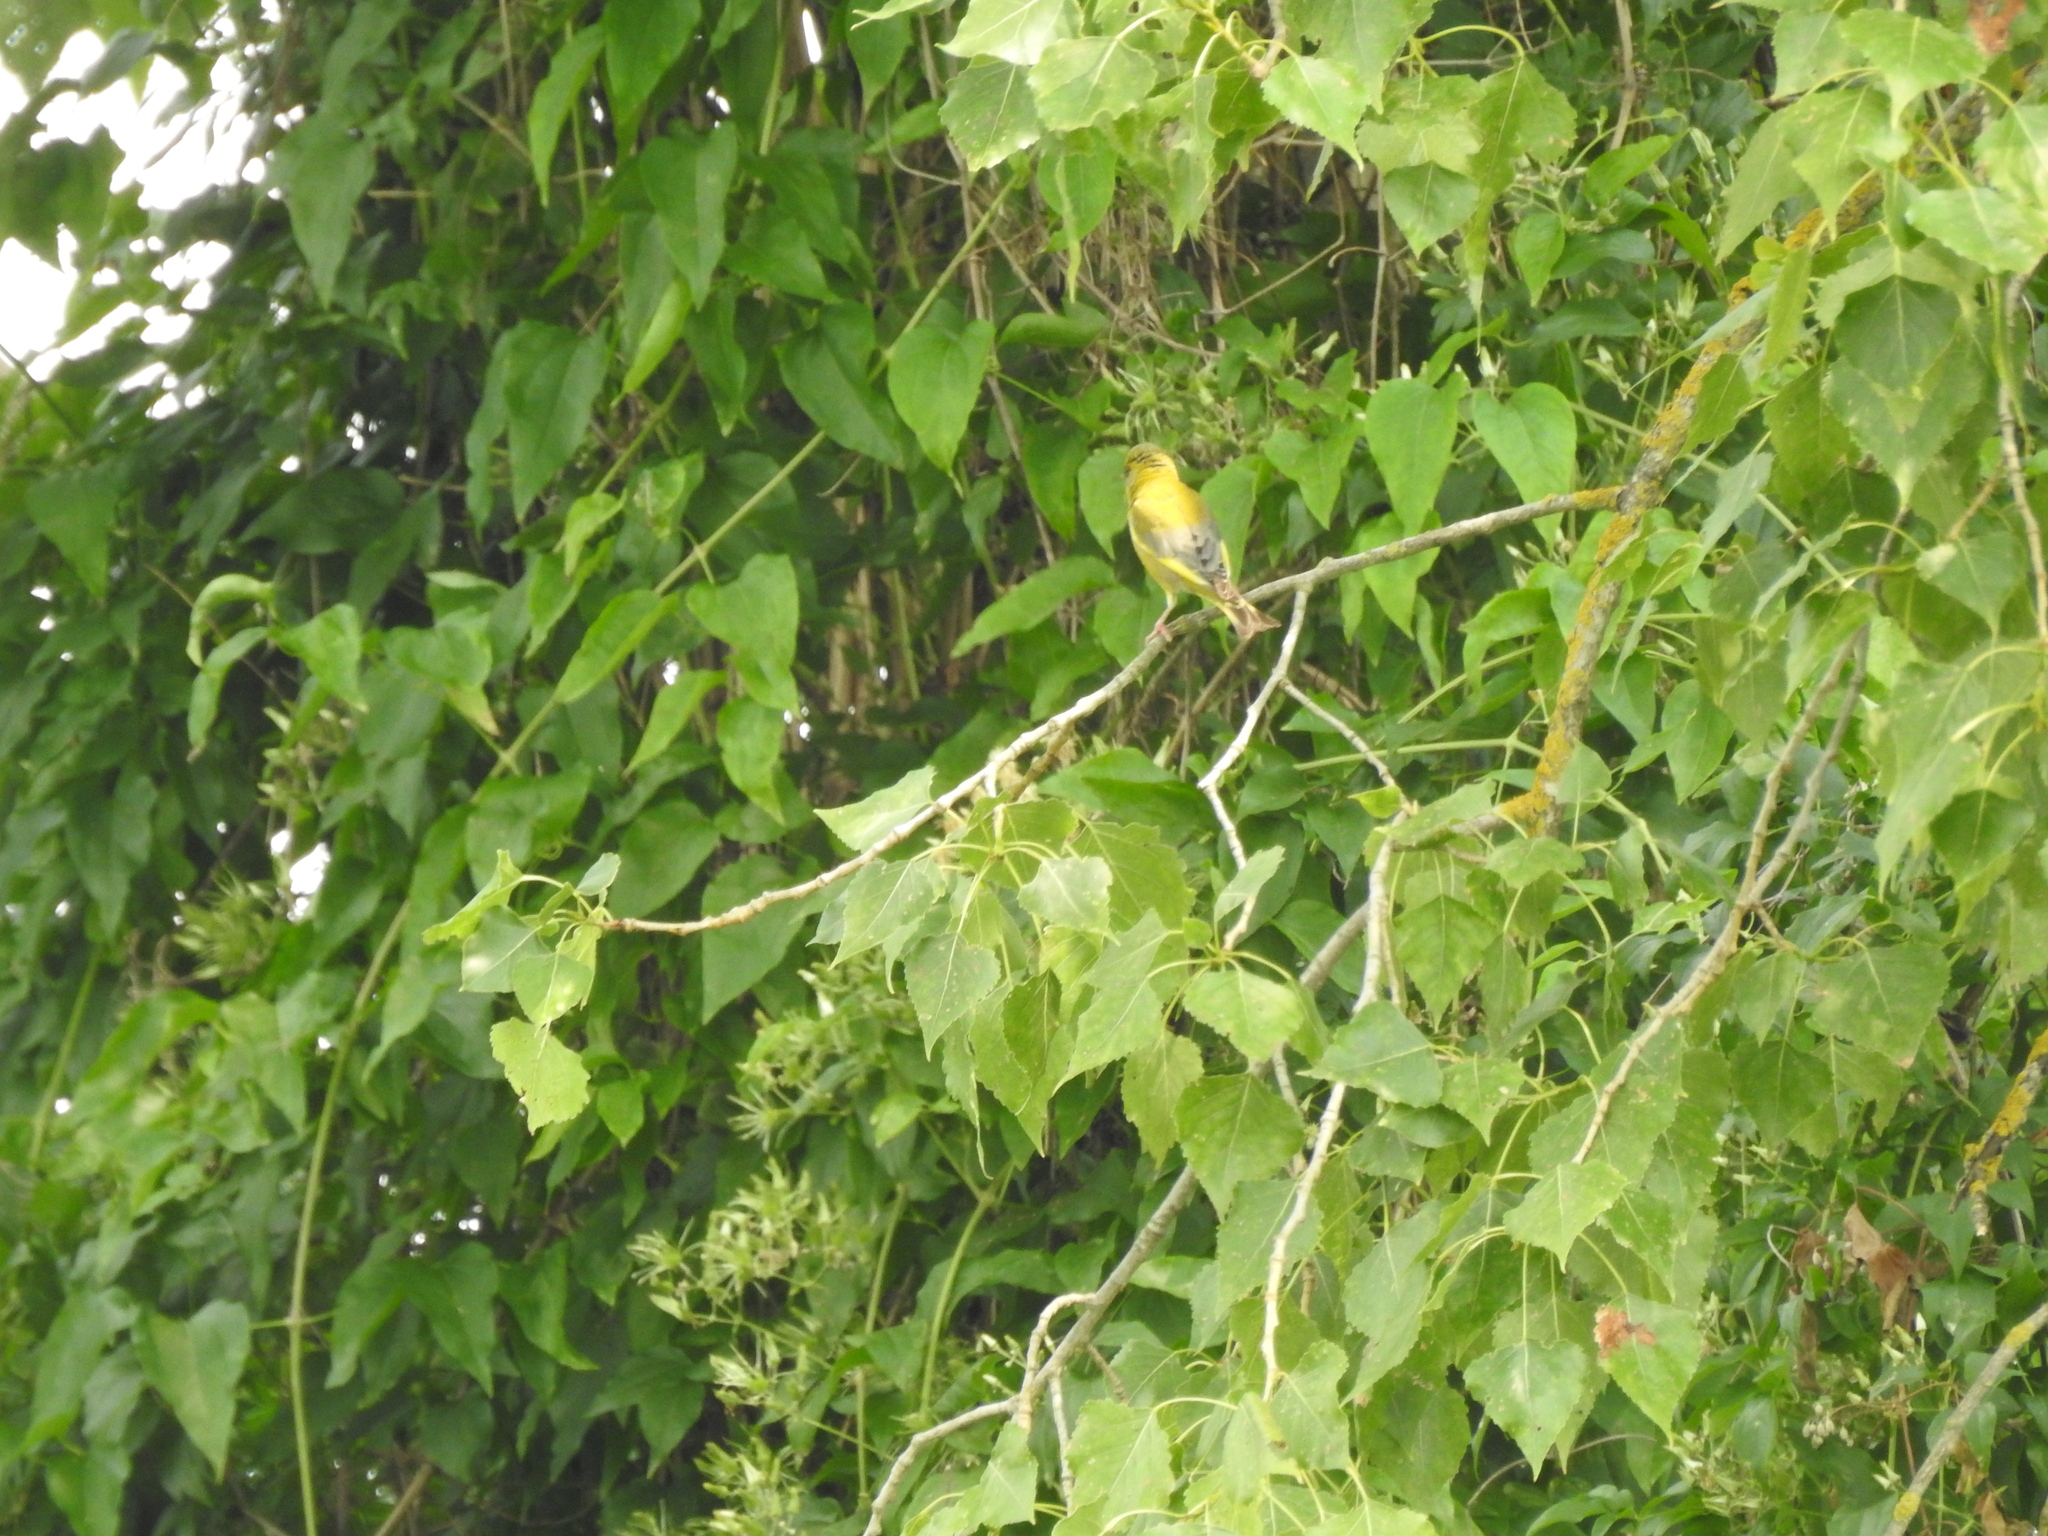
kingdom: Plantae
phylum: Tracheophyta
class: Liliopsida
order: Poales
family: Poaceae
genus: Chloris
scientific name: Chloris chloris
